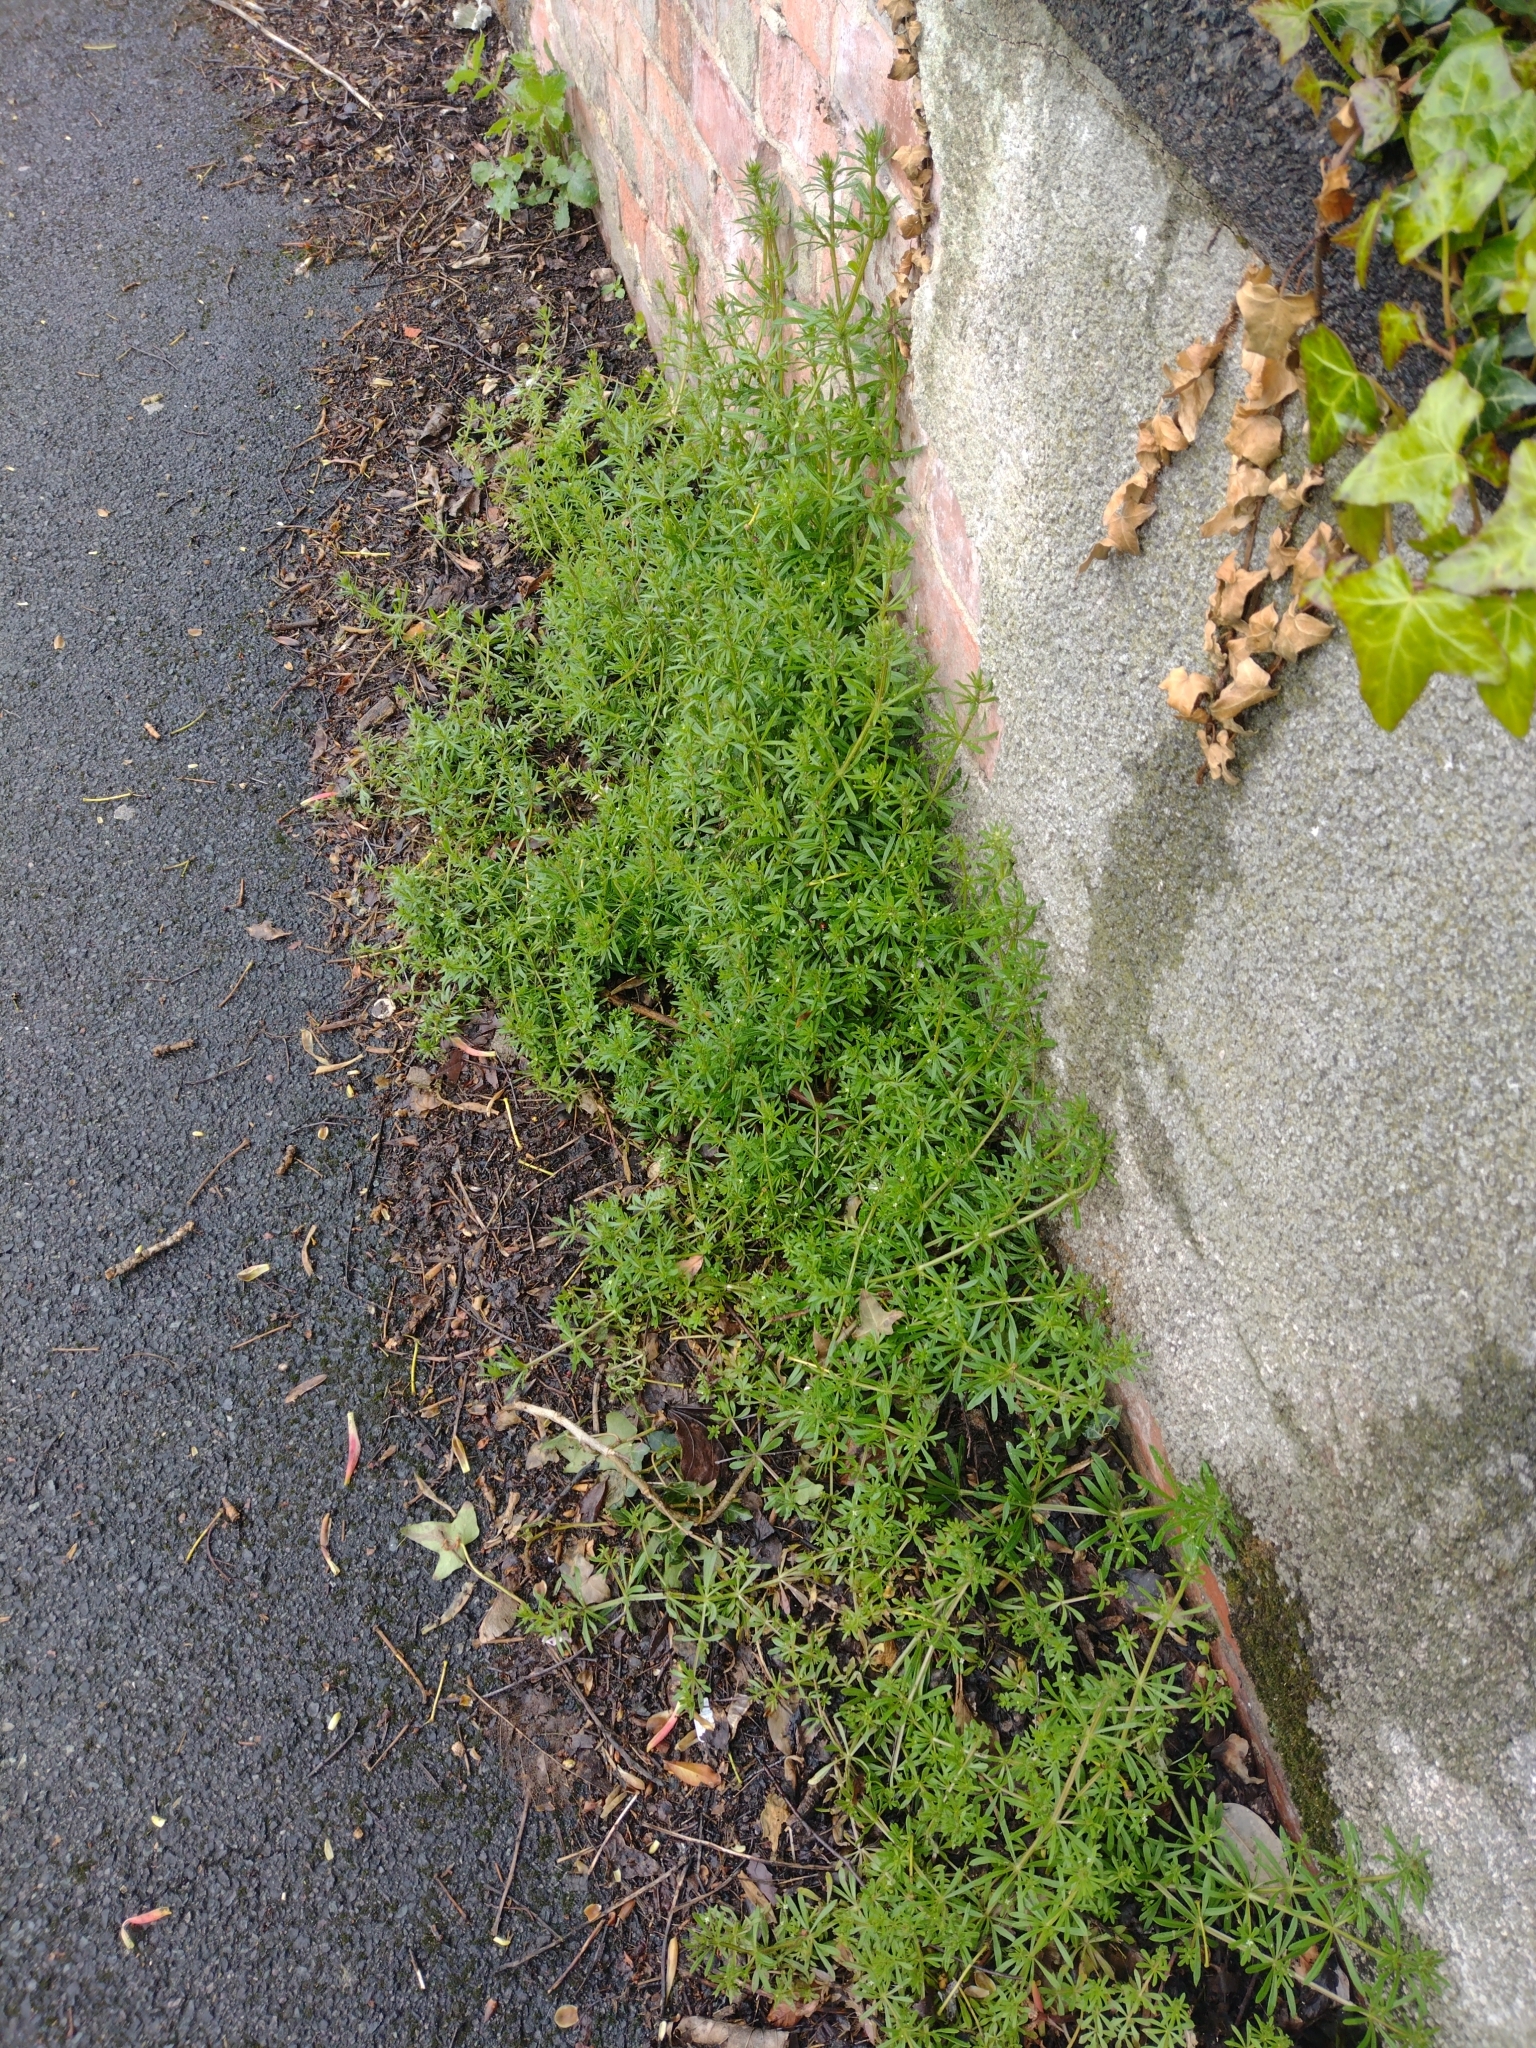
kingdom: Plantae
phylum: Tracheophyta
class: Magnoliopsida
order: Gentianales
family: Rubiaceae
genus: Galium
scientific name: Galium aparine
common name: Cleavers
